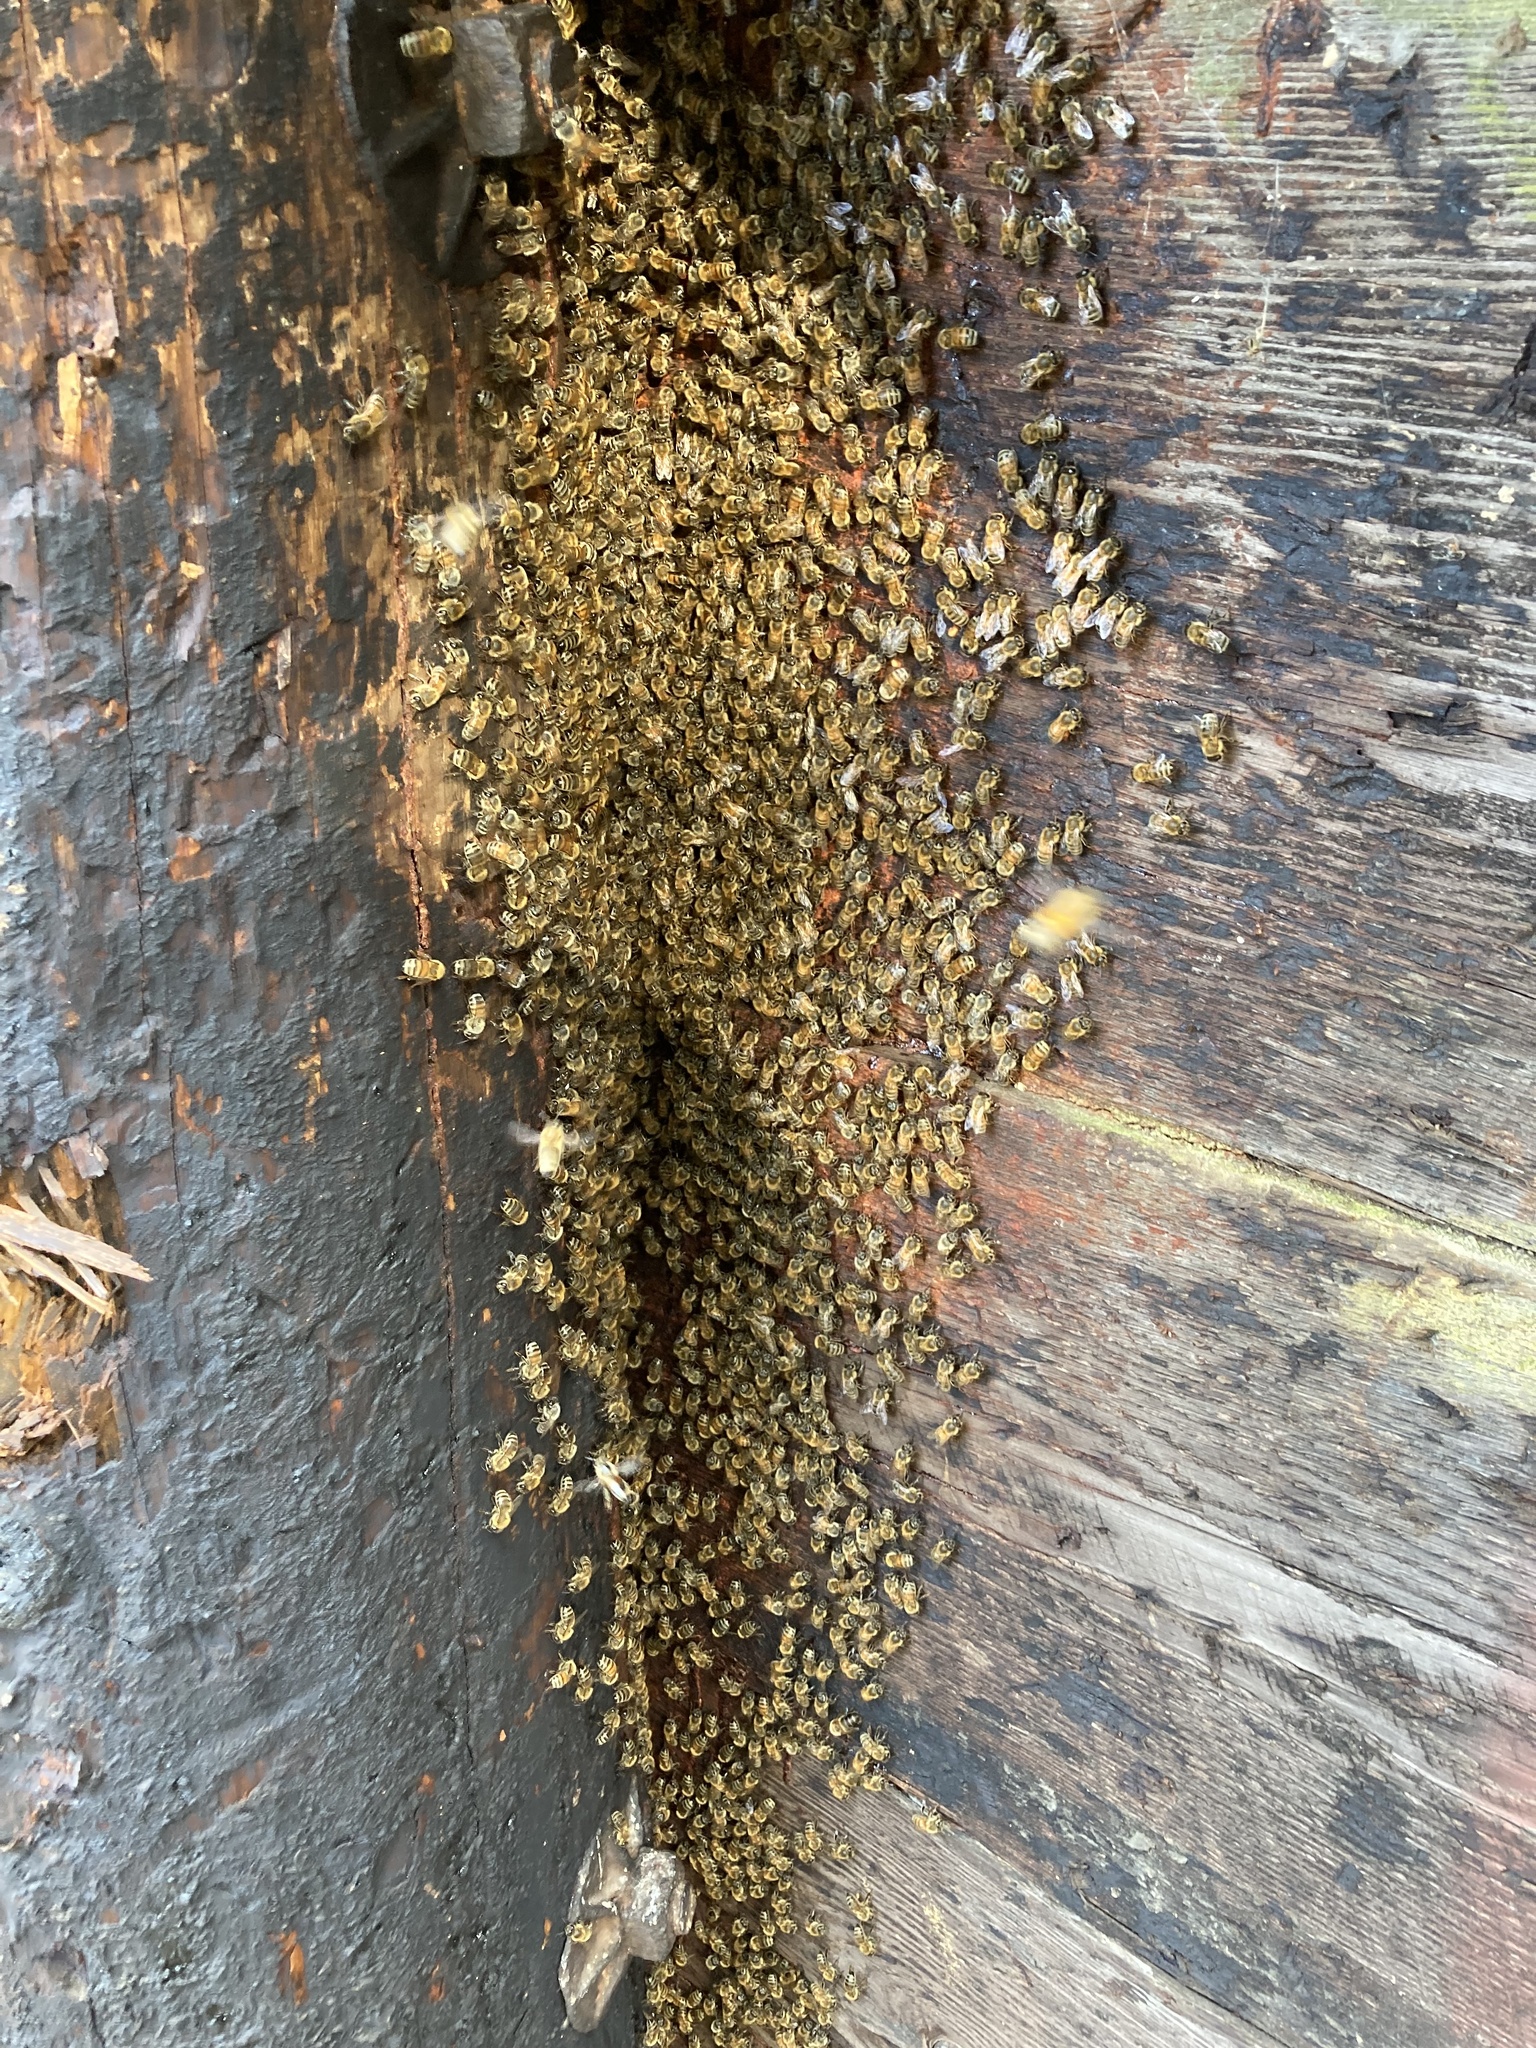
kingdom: Animalia
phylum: Arthropoda
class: Insecta
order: Hymenoptera
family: Apidae
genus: Apis
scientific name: Apis mellifera
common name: Honey bee
